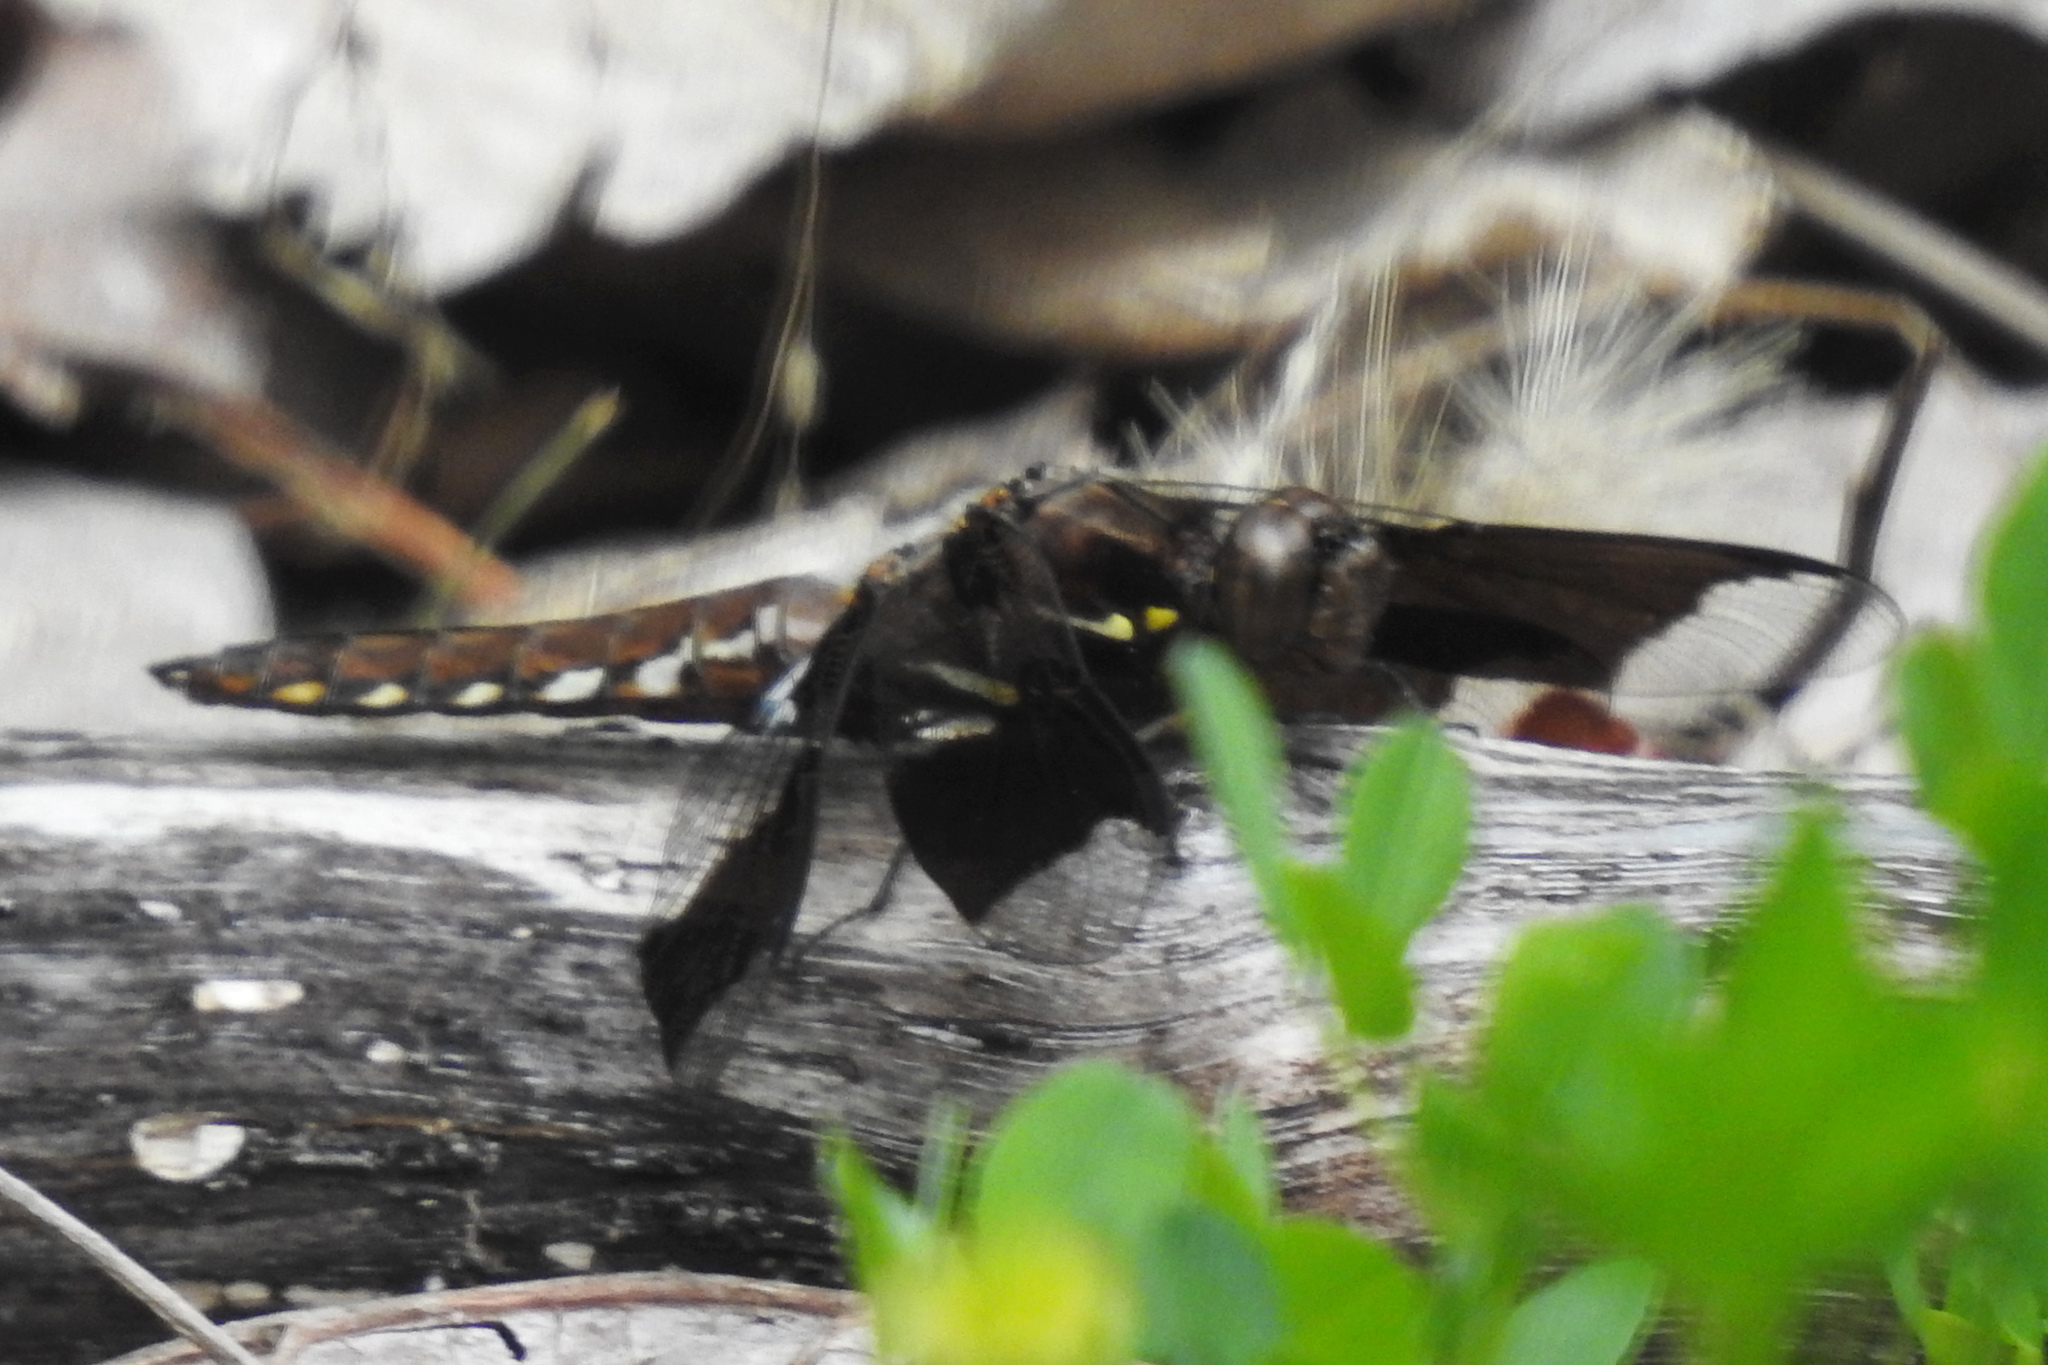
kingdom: Animalia
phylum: Arthropoda
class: Insecta
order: Odonata
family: Libellulidae
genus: Plathemis
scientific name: Plathemis lydia
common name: Common whitetail
